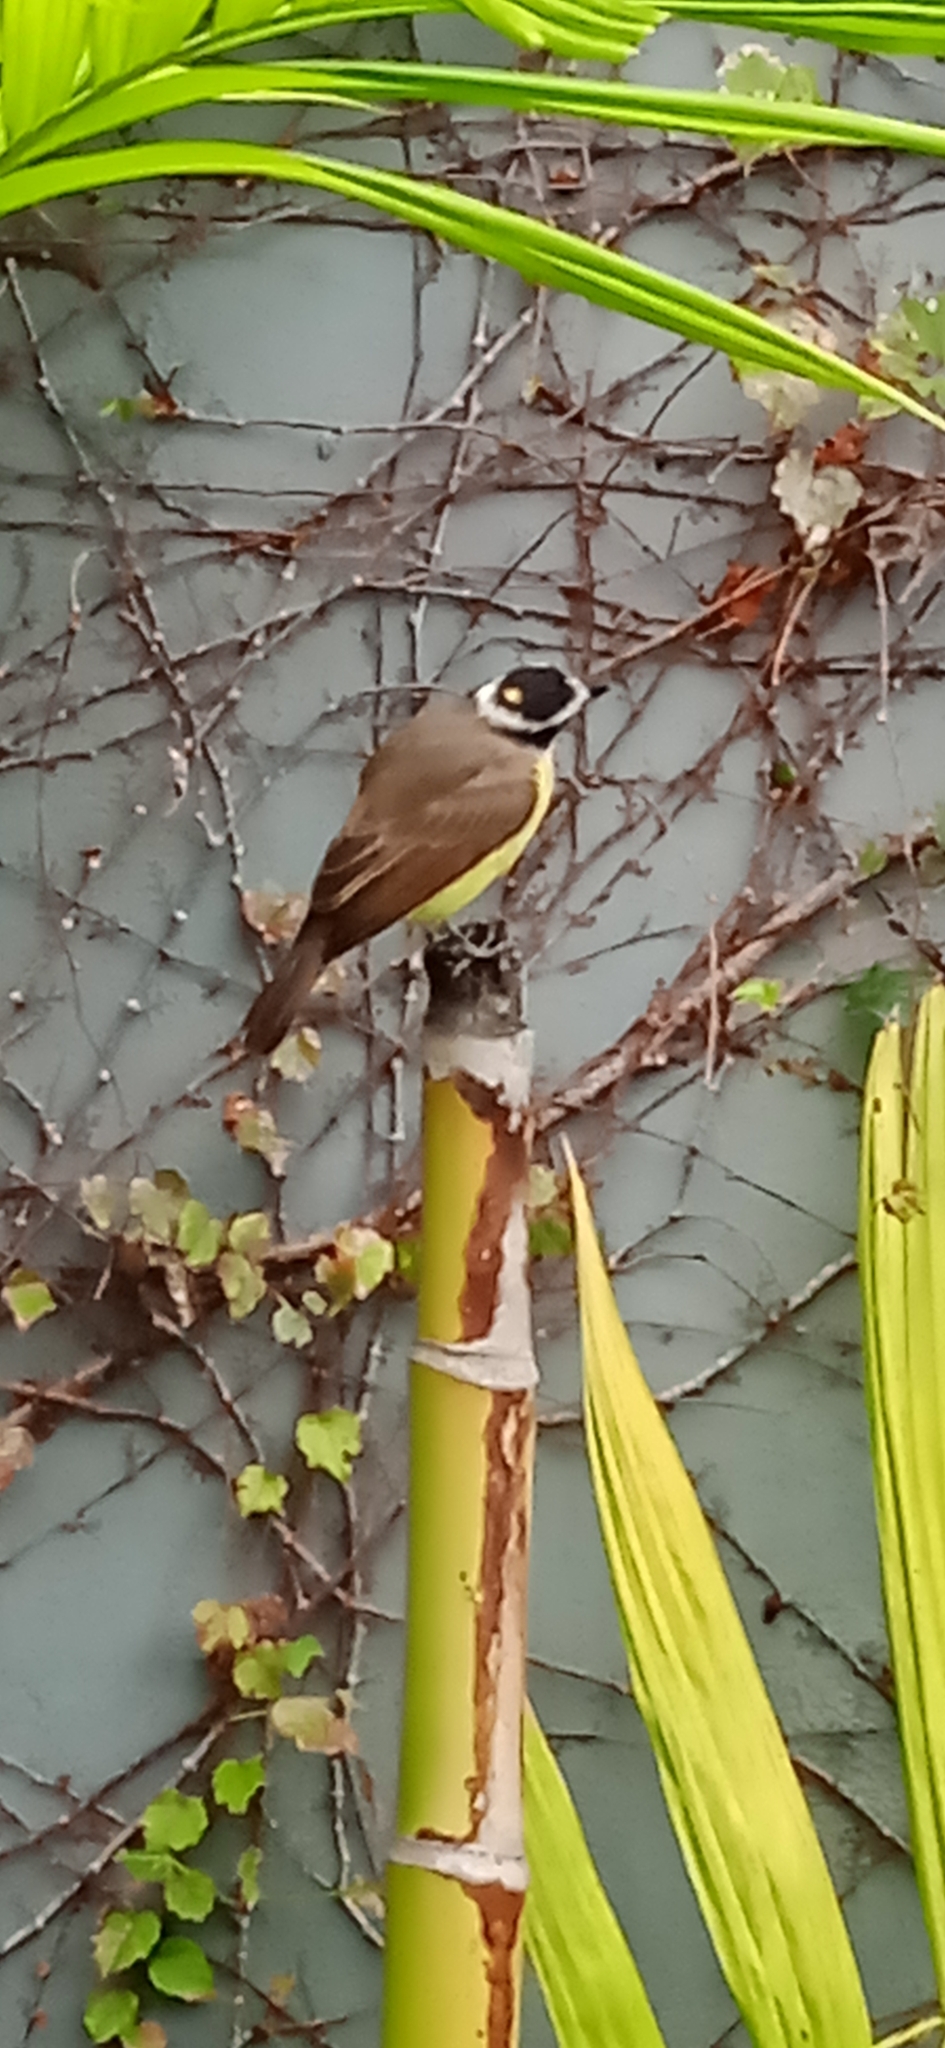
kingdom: Animalia
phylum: Chordata
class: Aves
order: Passeriformes
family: Tyrannidae
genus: Pitangus
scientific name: Pitangus sulphuratus
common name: Great kiskadee
